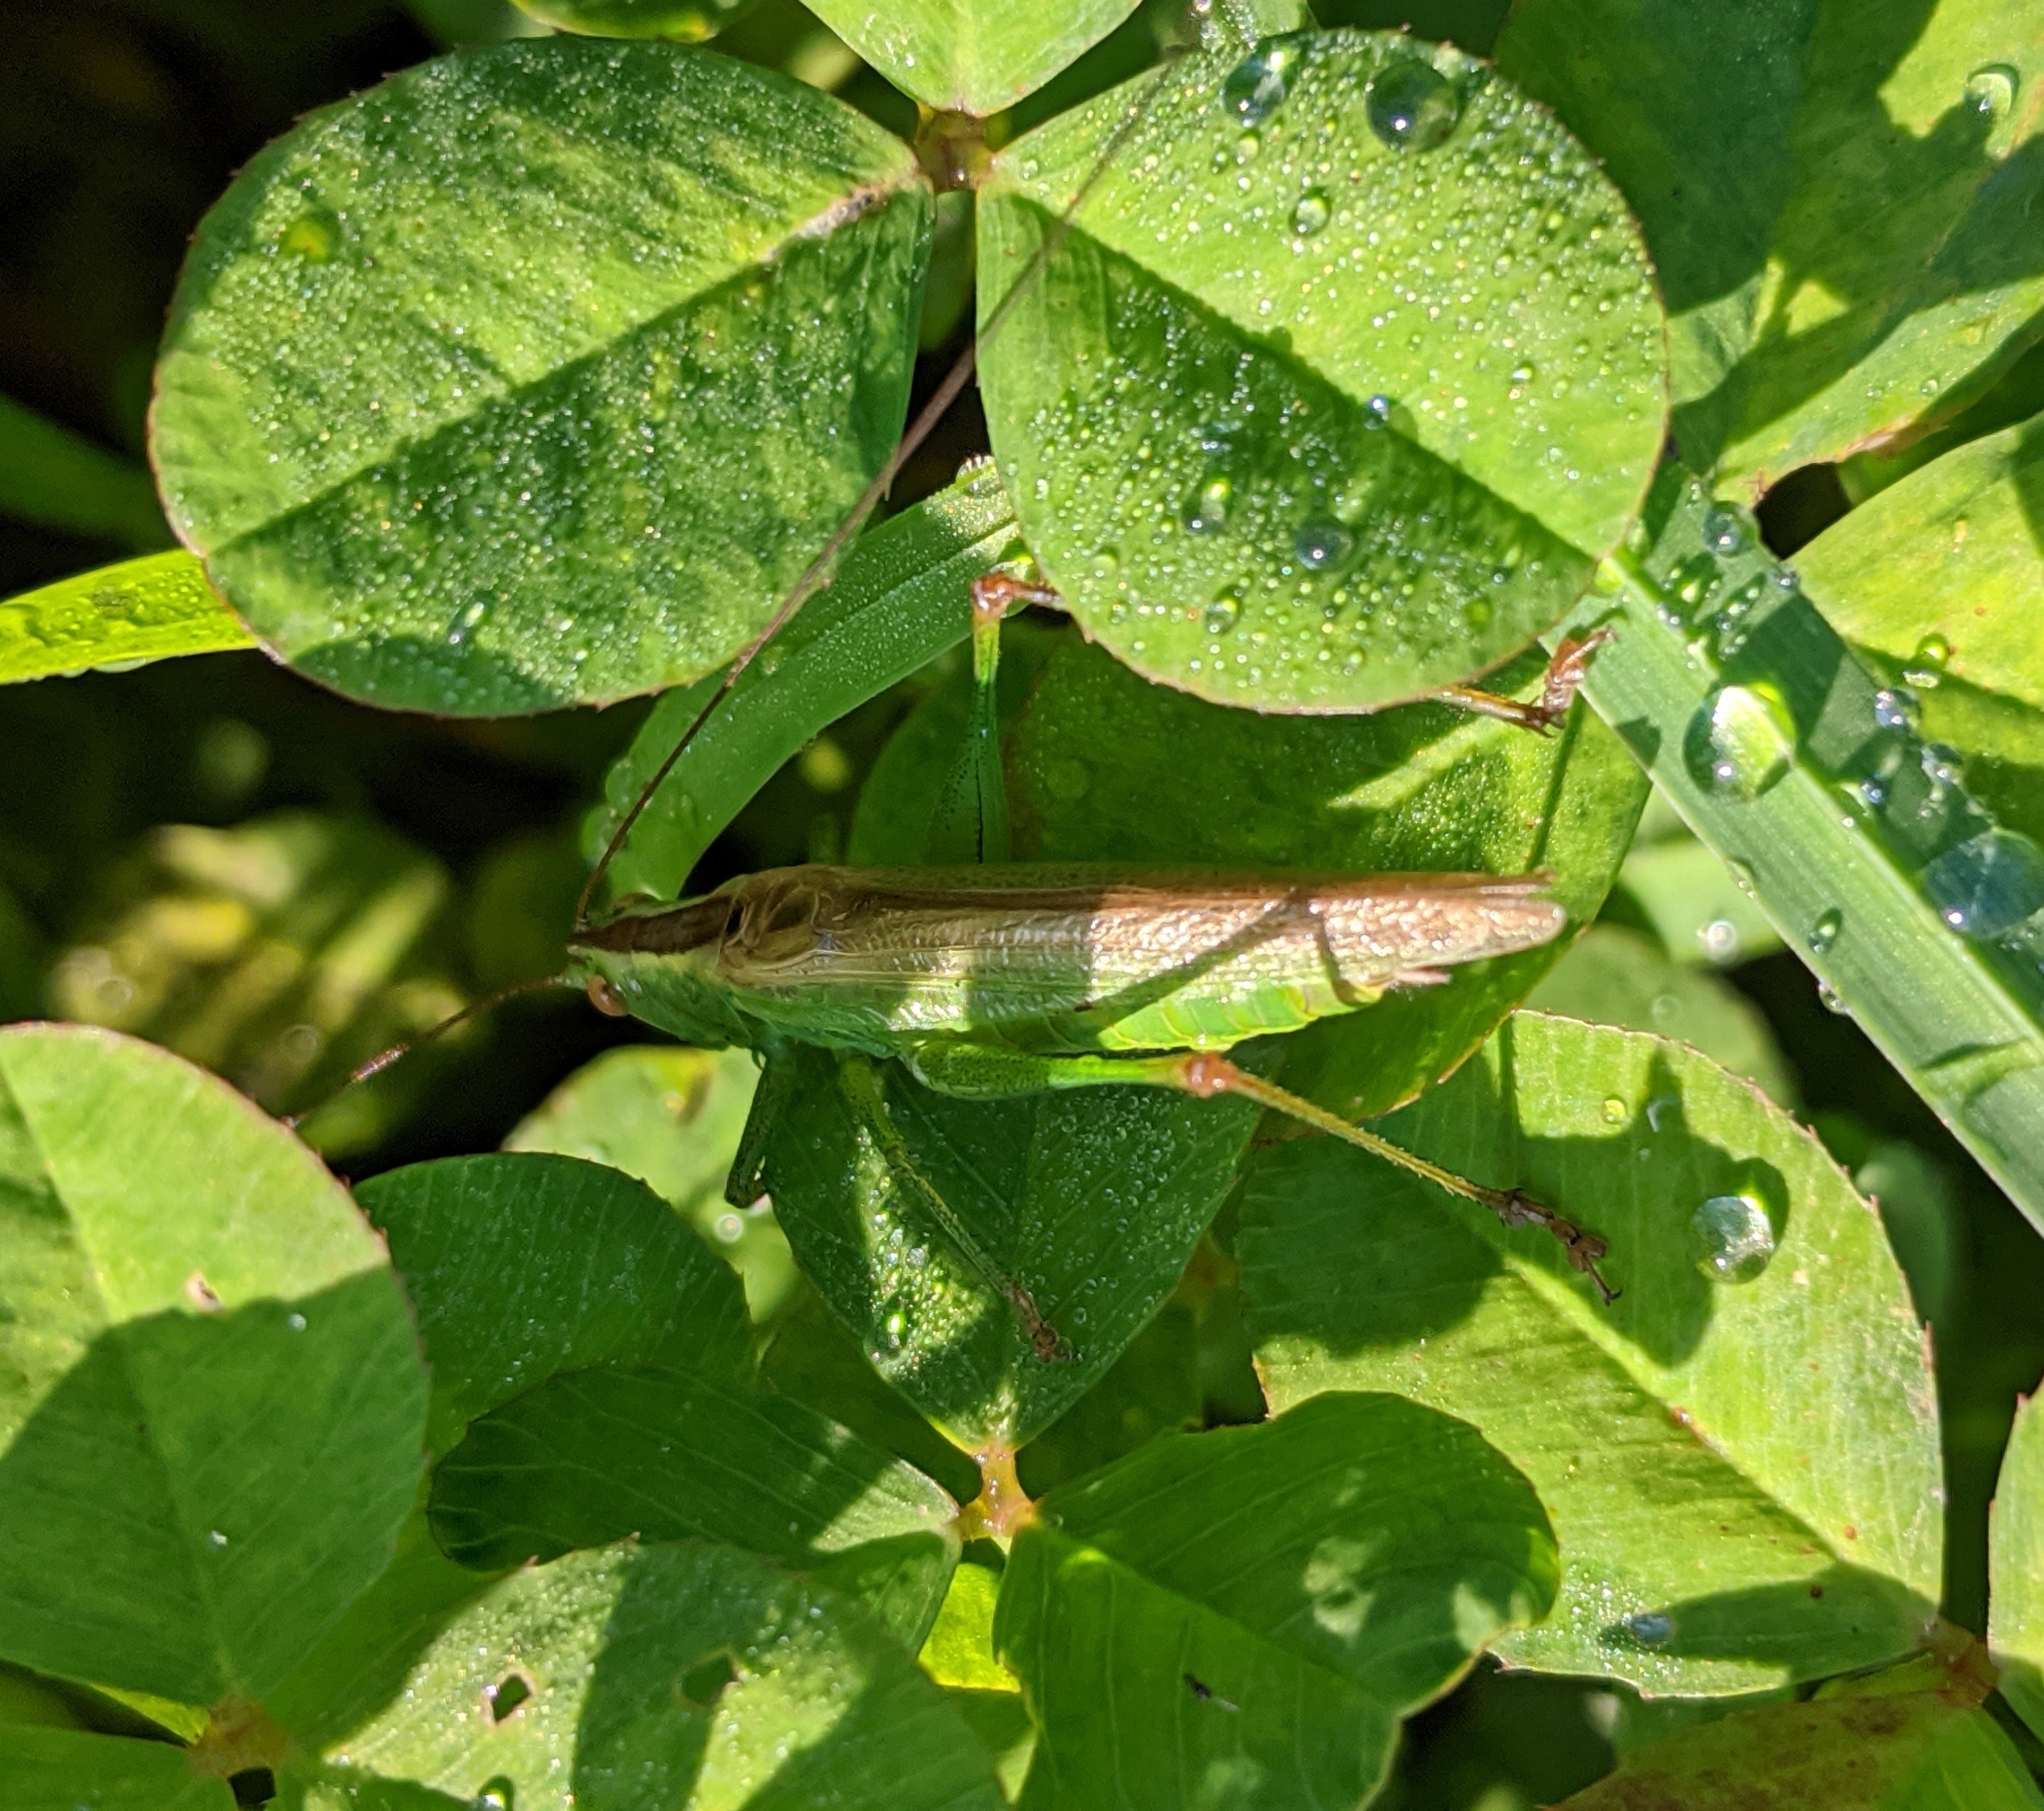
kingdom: Animalia
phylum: Arthropoda
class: Insecta
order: Orthoptera
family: Tettigoniidae
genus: Conocephalus
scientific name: Conocephalus fuscus
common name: Long-winged conehead
